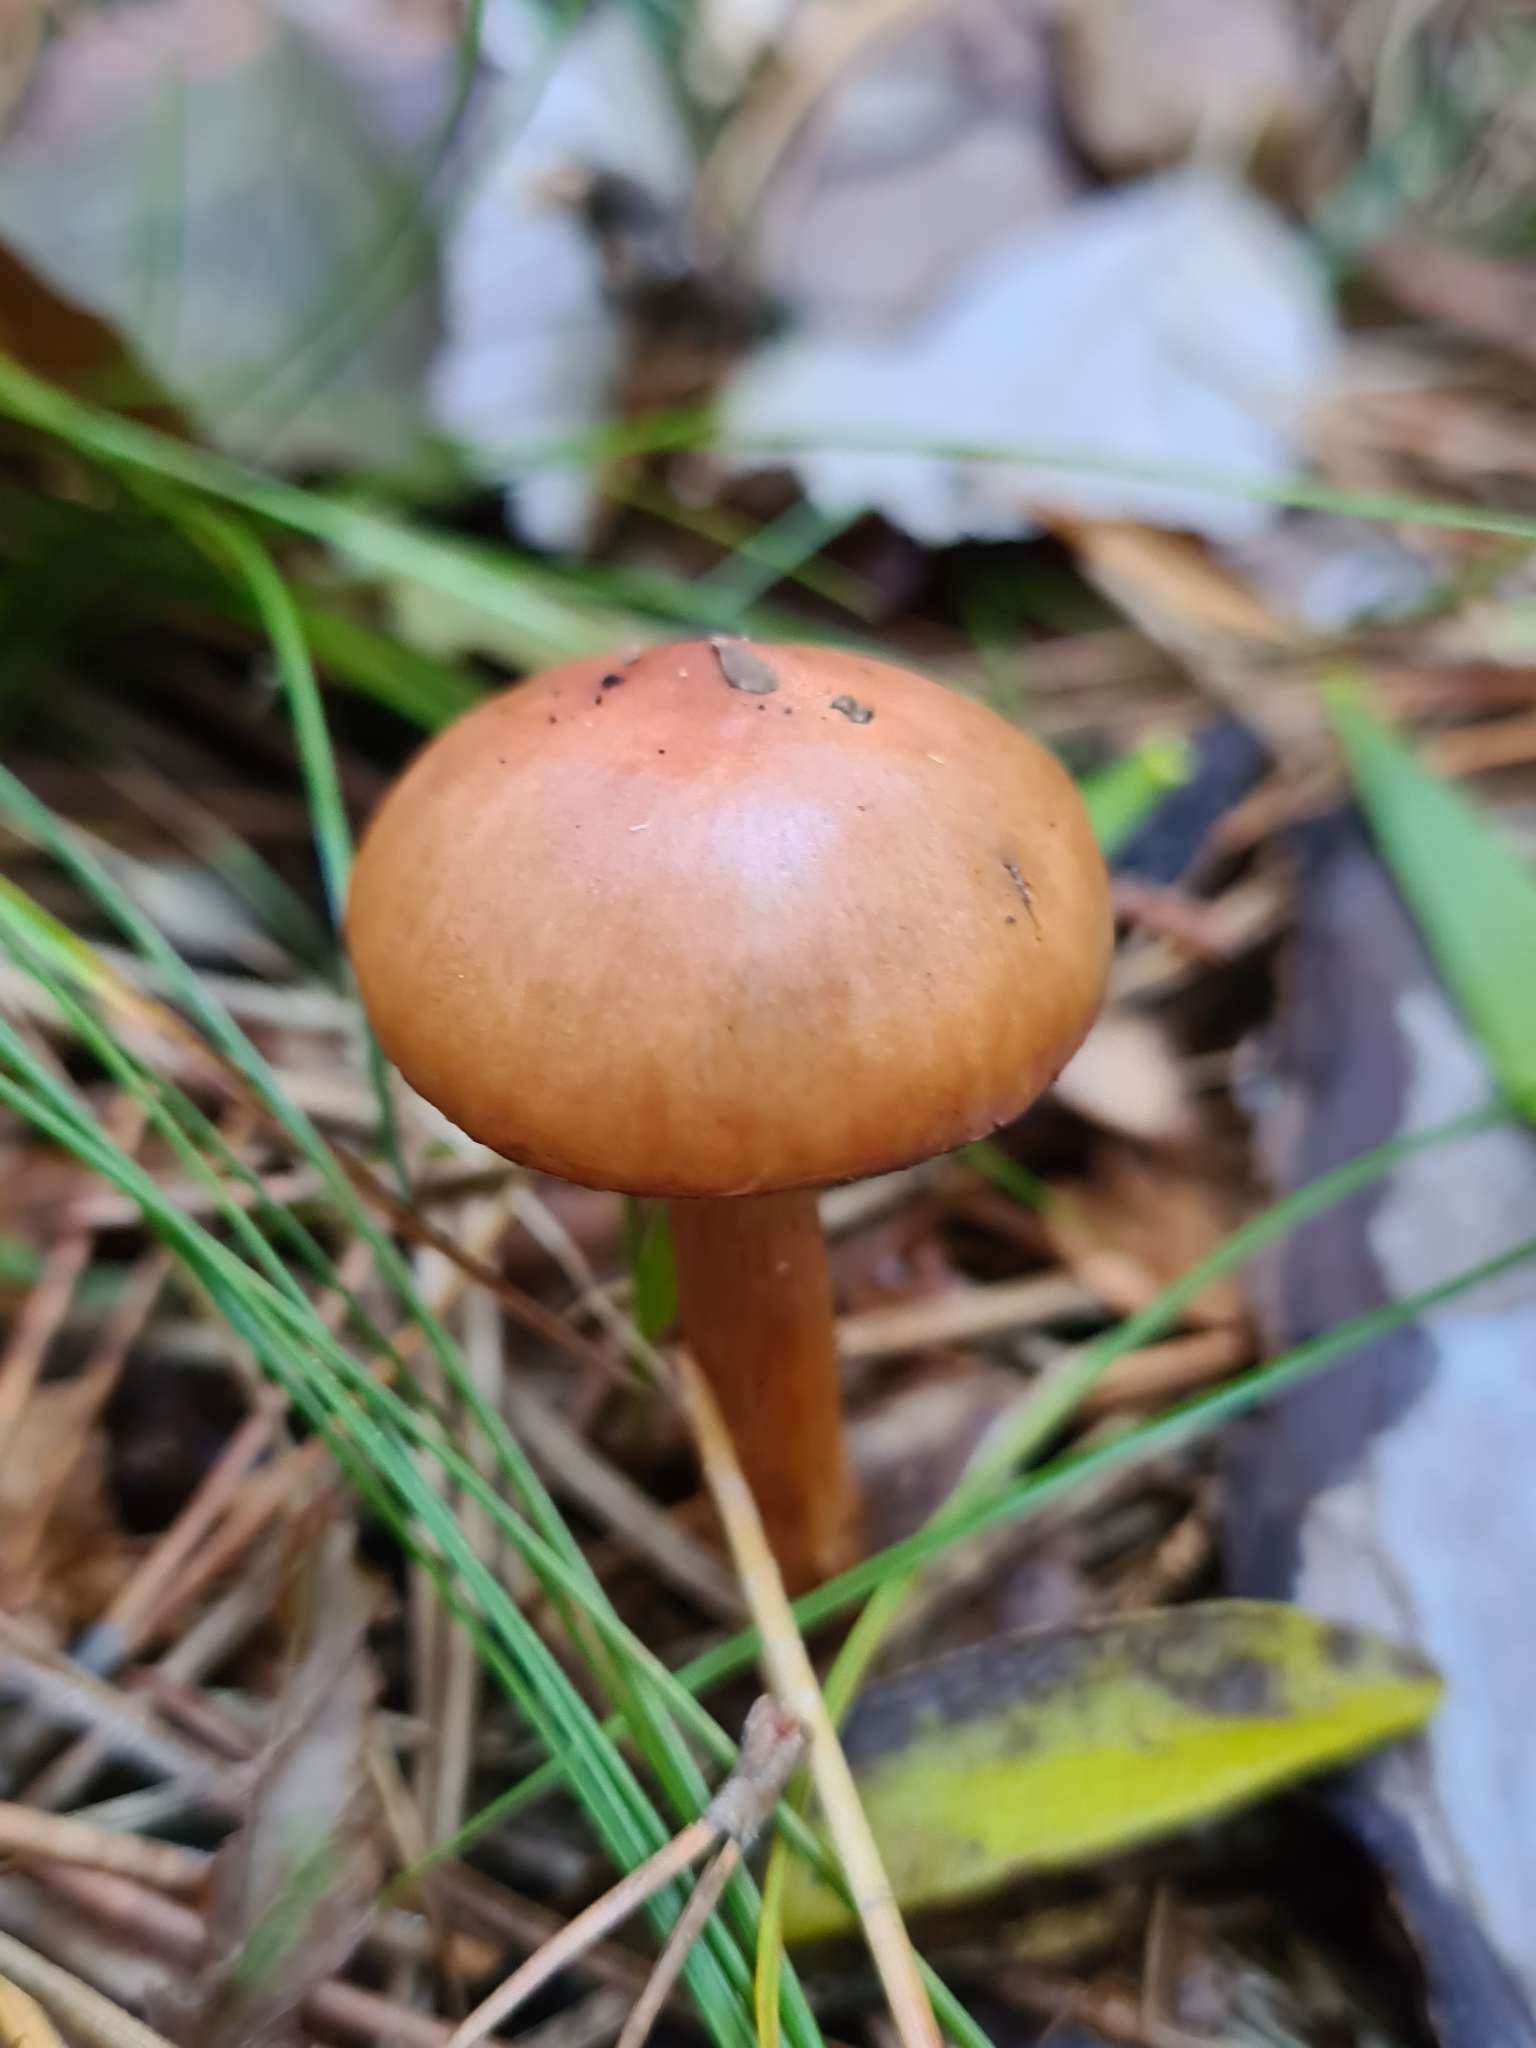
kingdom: Fungi
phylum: Basidiomycota
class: Agaricomycetes
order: Boletales
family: Gomphidiaceae
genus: Chroogomphus
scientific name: Chroogomphus rutilus
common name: Copper spike
